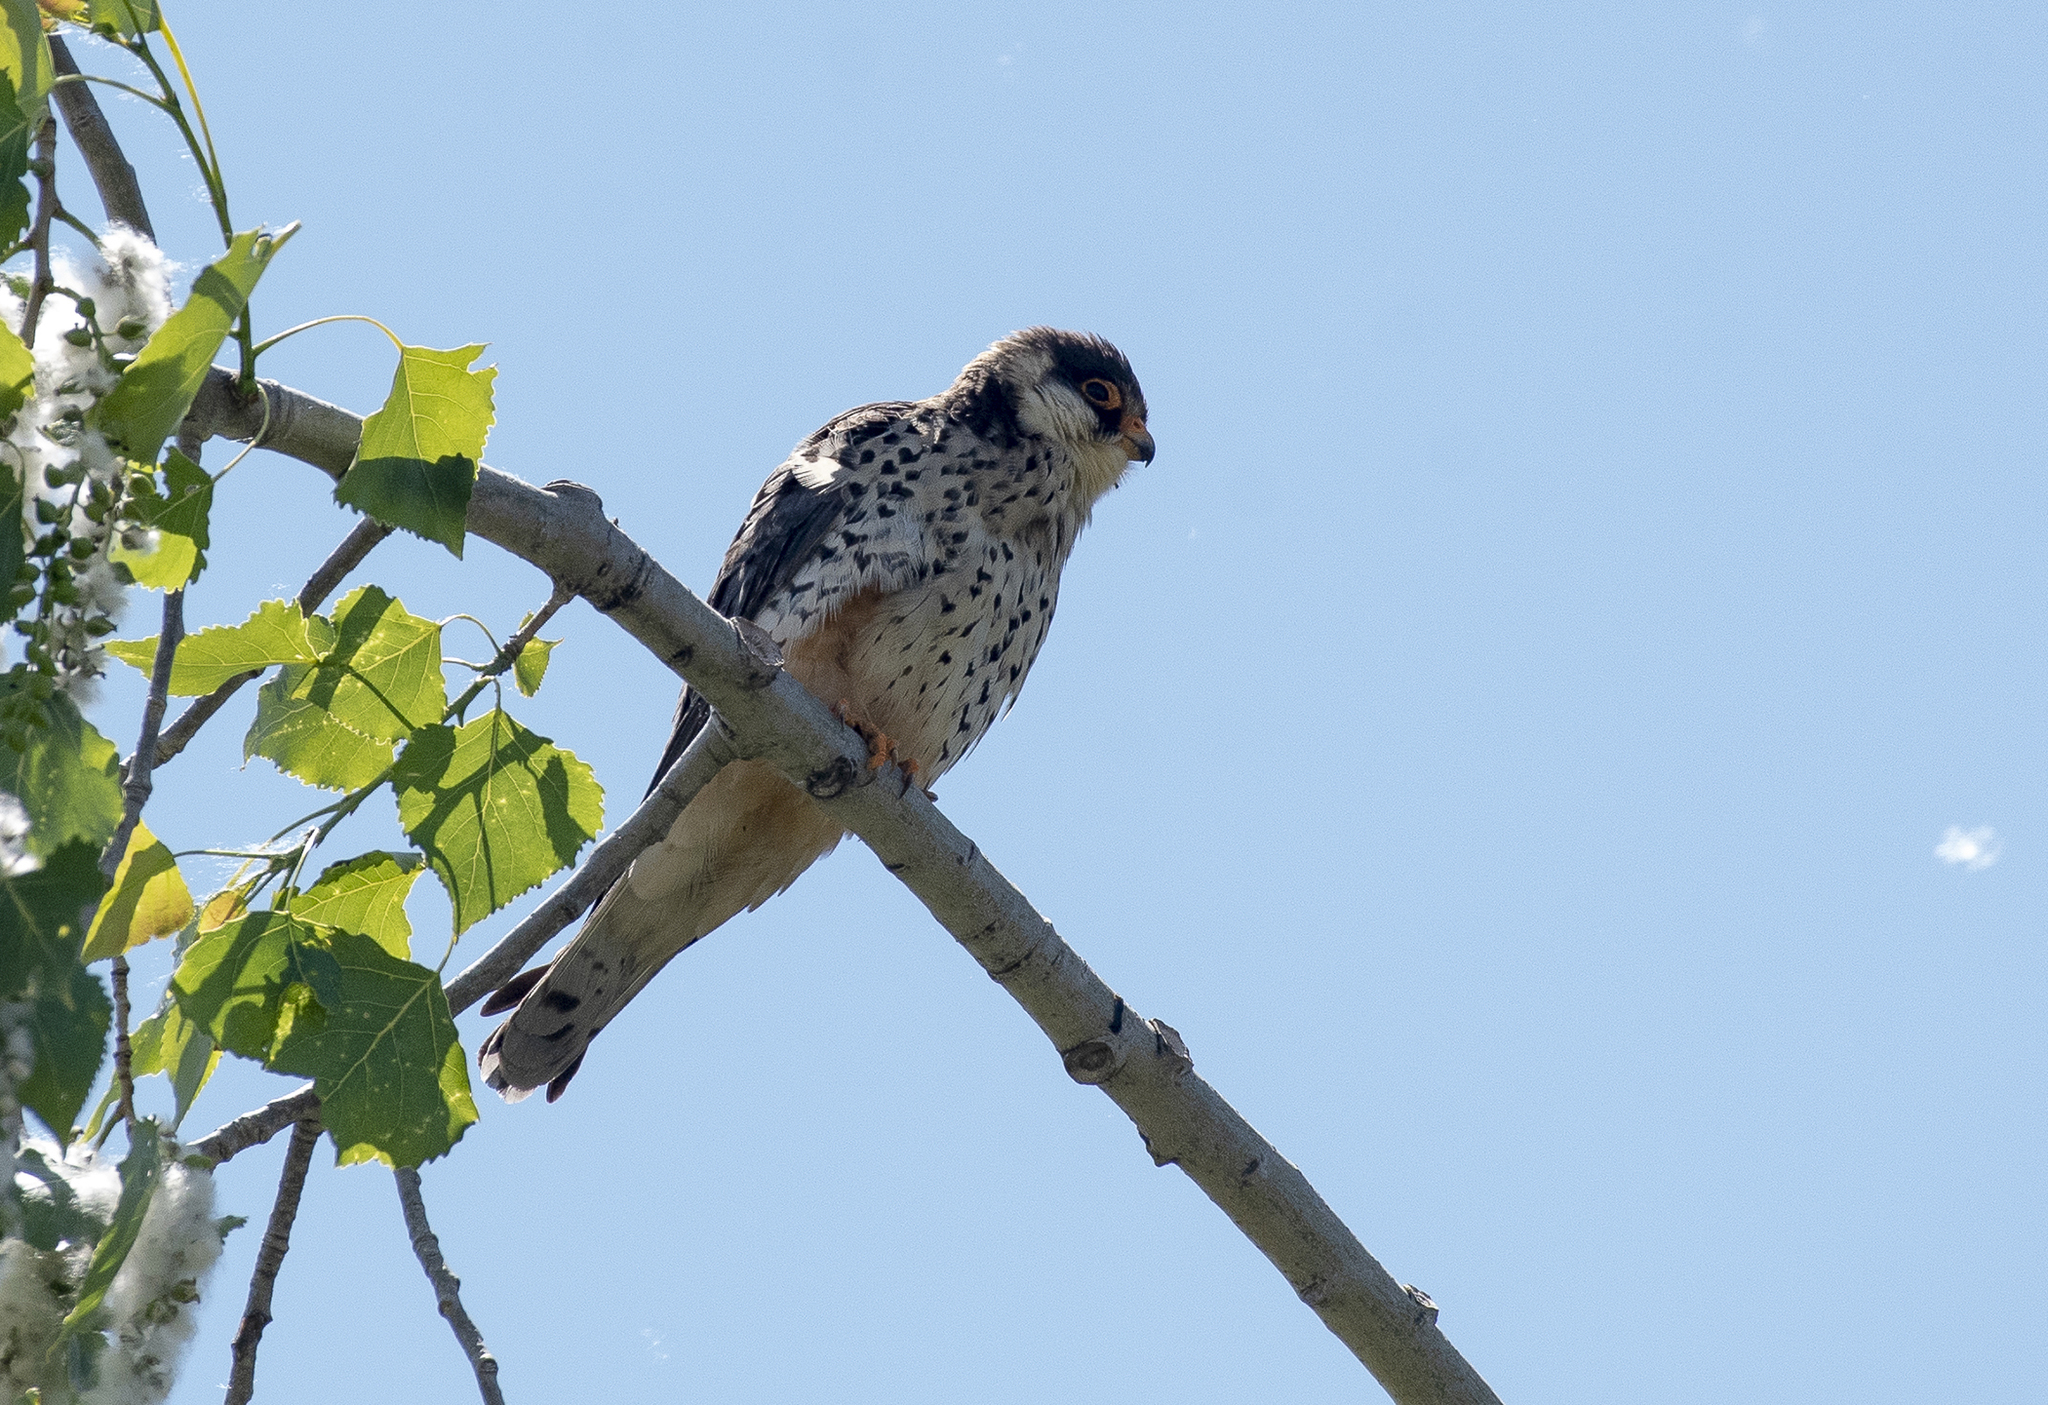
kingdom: Animalia
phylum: Chordata
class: Aves
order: Falconiformes
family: Falconidae
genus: Falco
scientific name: Falco amurensis
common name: Amur falcon
